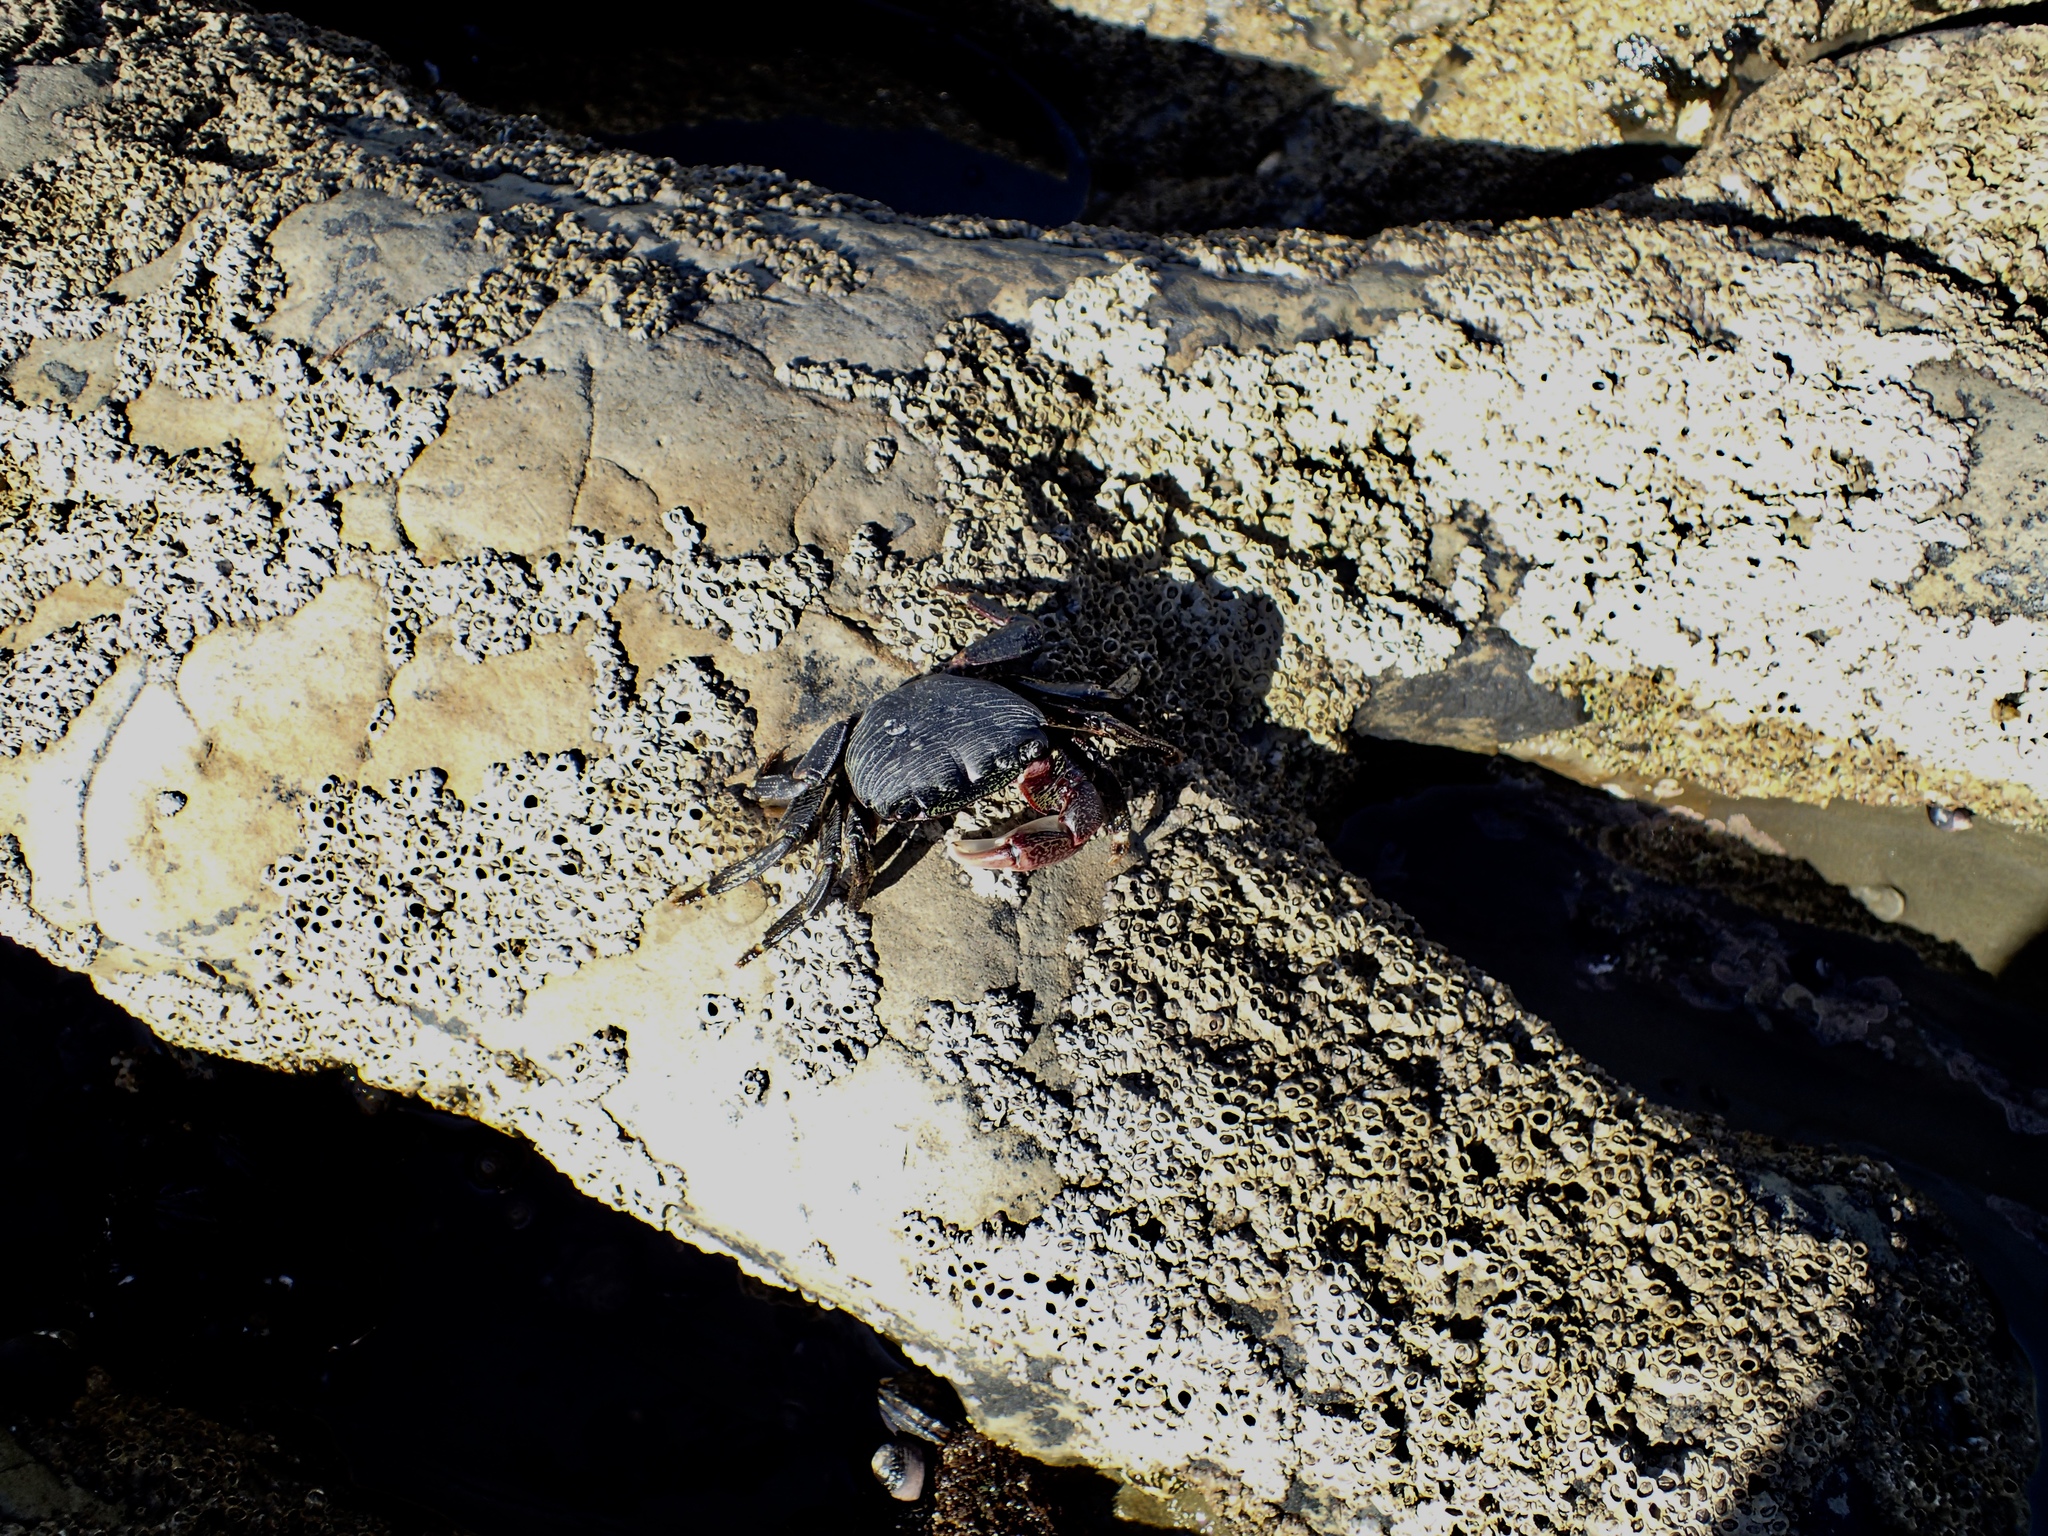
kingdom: Animalia
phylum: Arthropoda
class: Malacostraca
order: Decapoda
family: Grapsidae
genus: Pachygrapsus
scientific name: Pachygrapsus crassipes
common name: Striped shore crab
